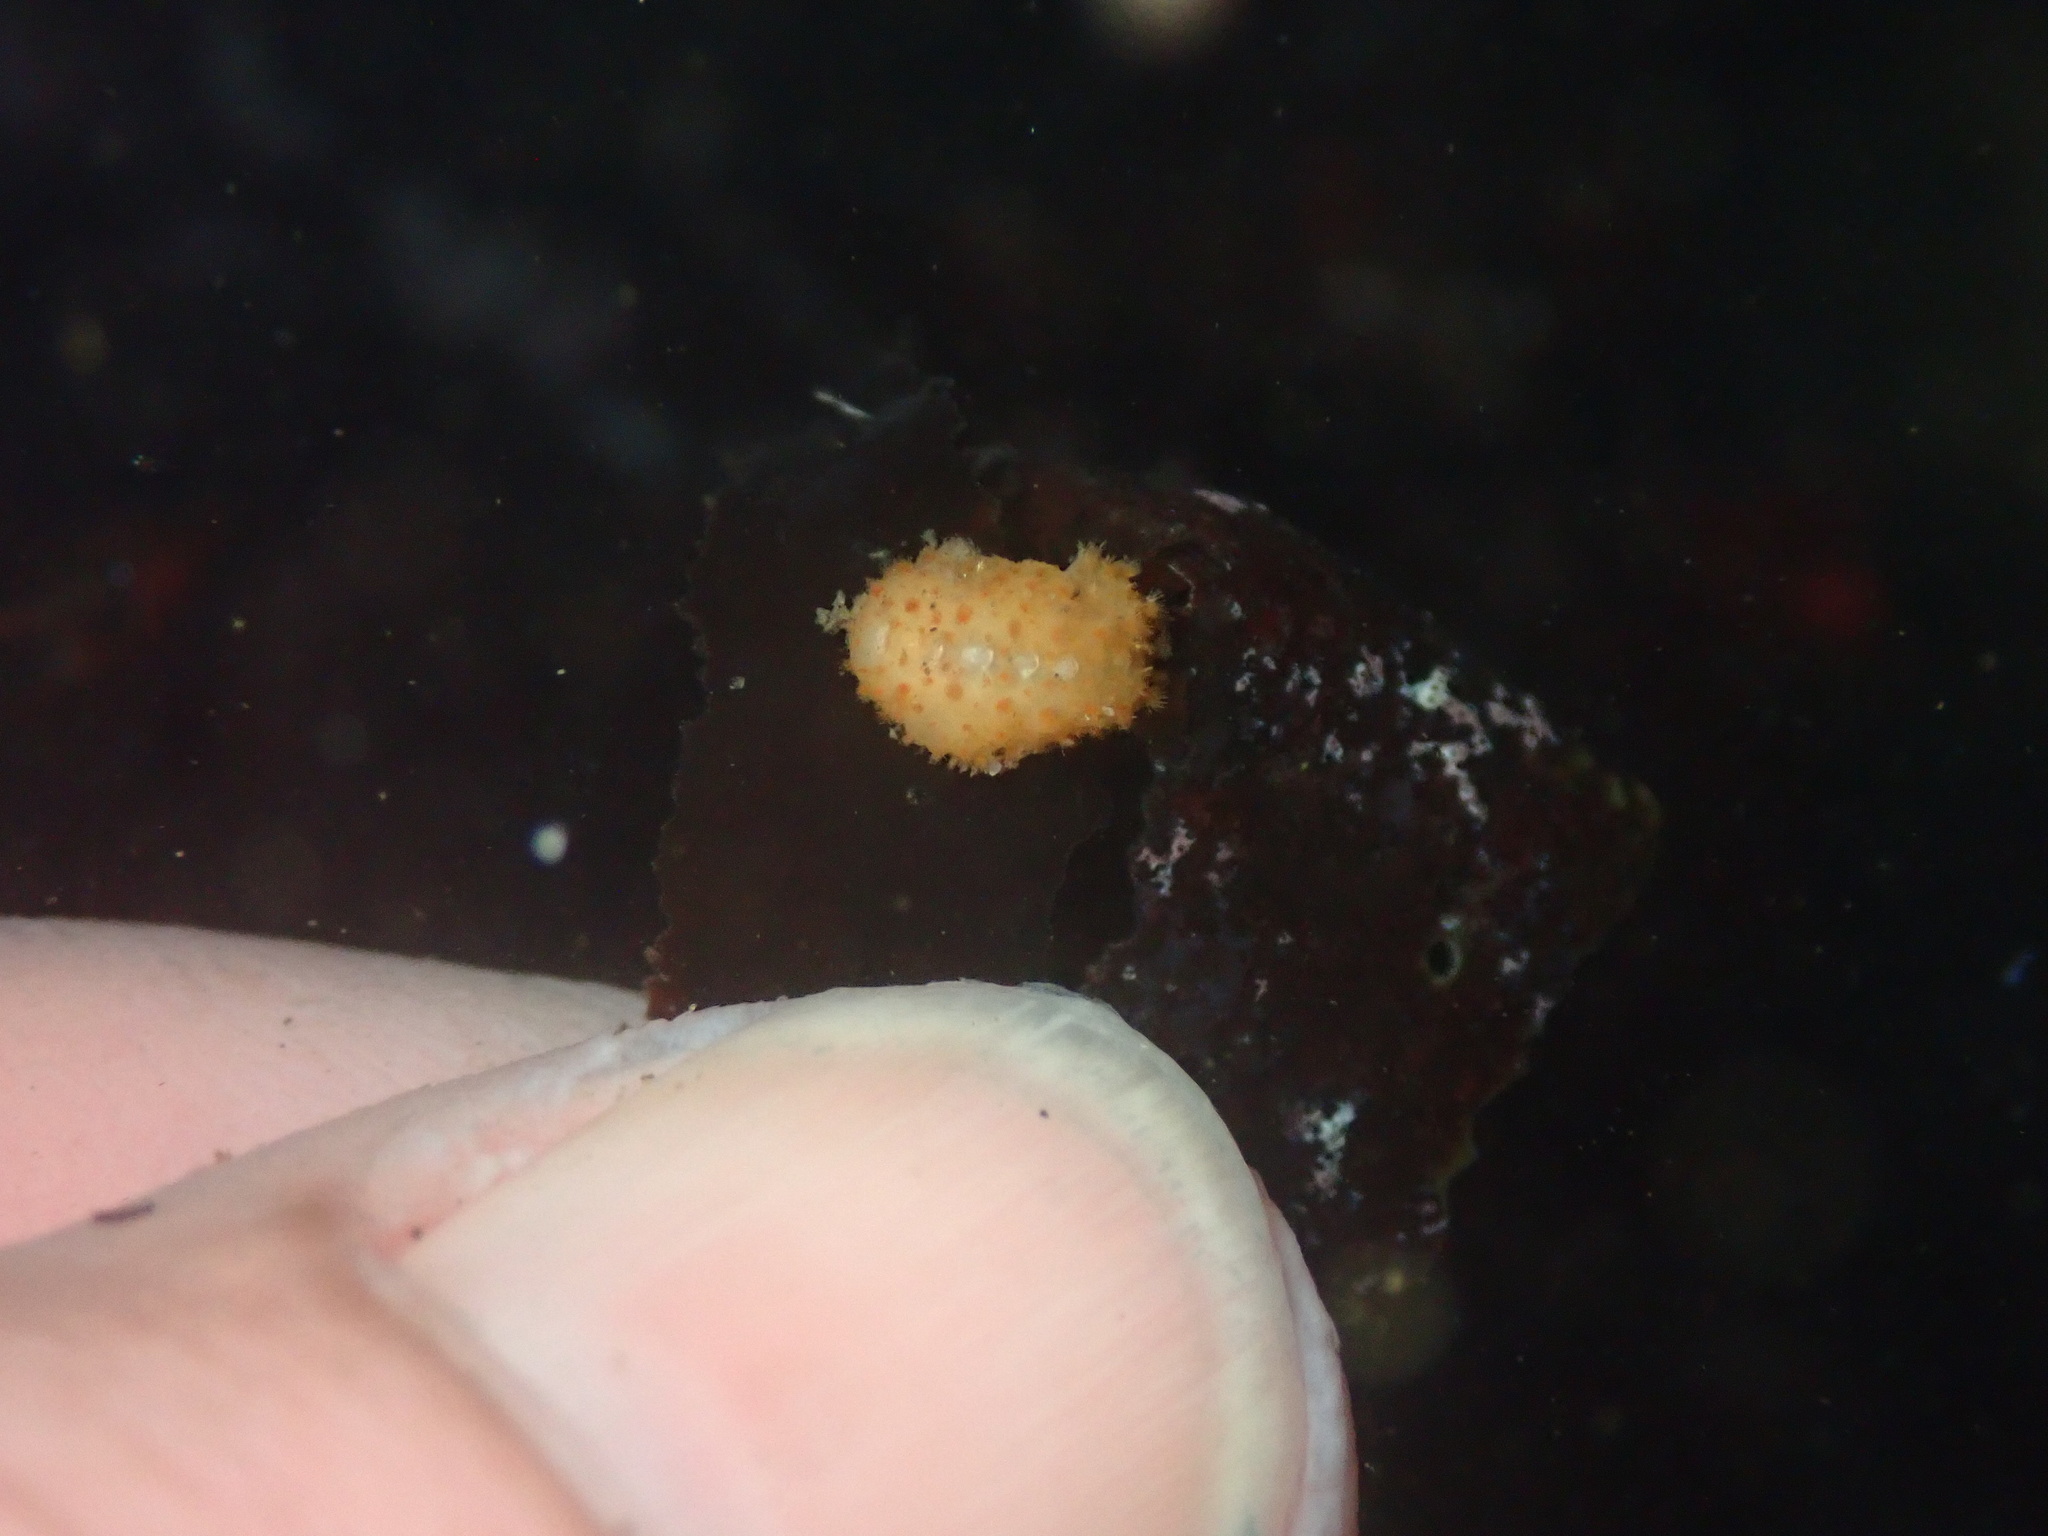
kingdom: Animalia
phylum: Mollusca
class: Polyplacophora
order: Chitonida
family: Acanthochitonidae
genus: Cryptochiton
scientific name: Cryptochiton stelleri
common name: Giant pacific chiton
